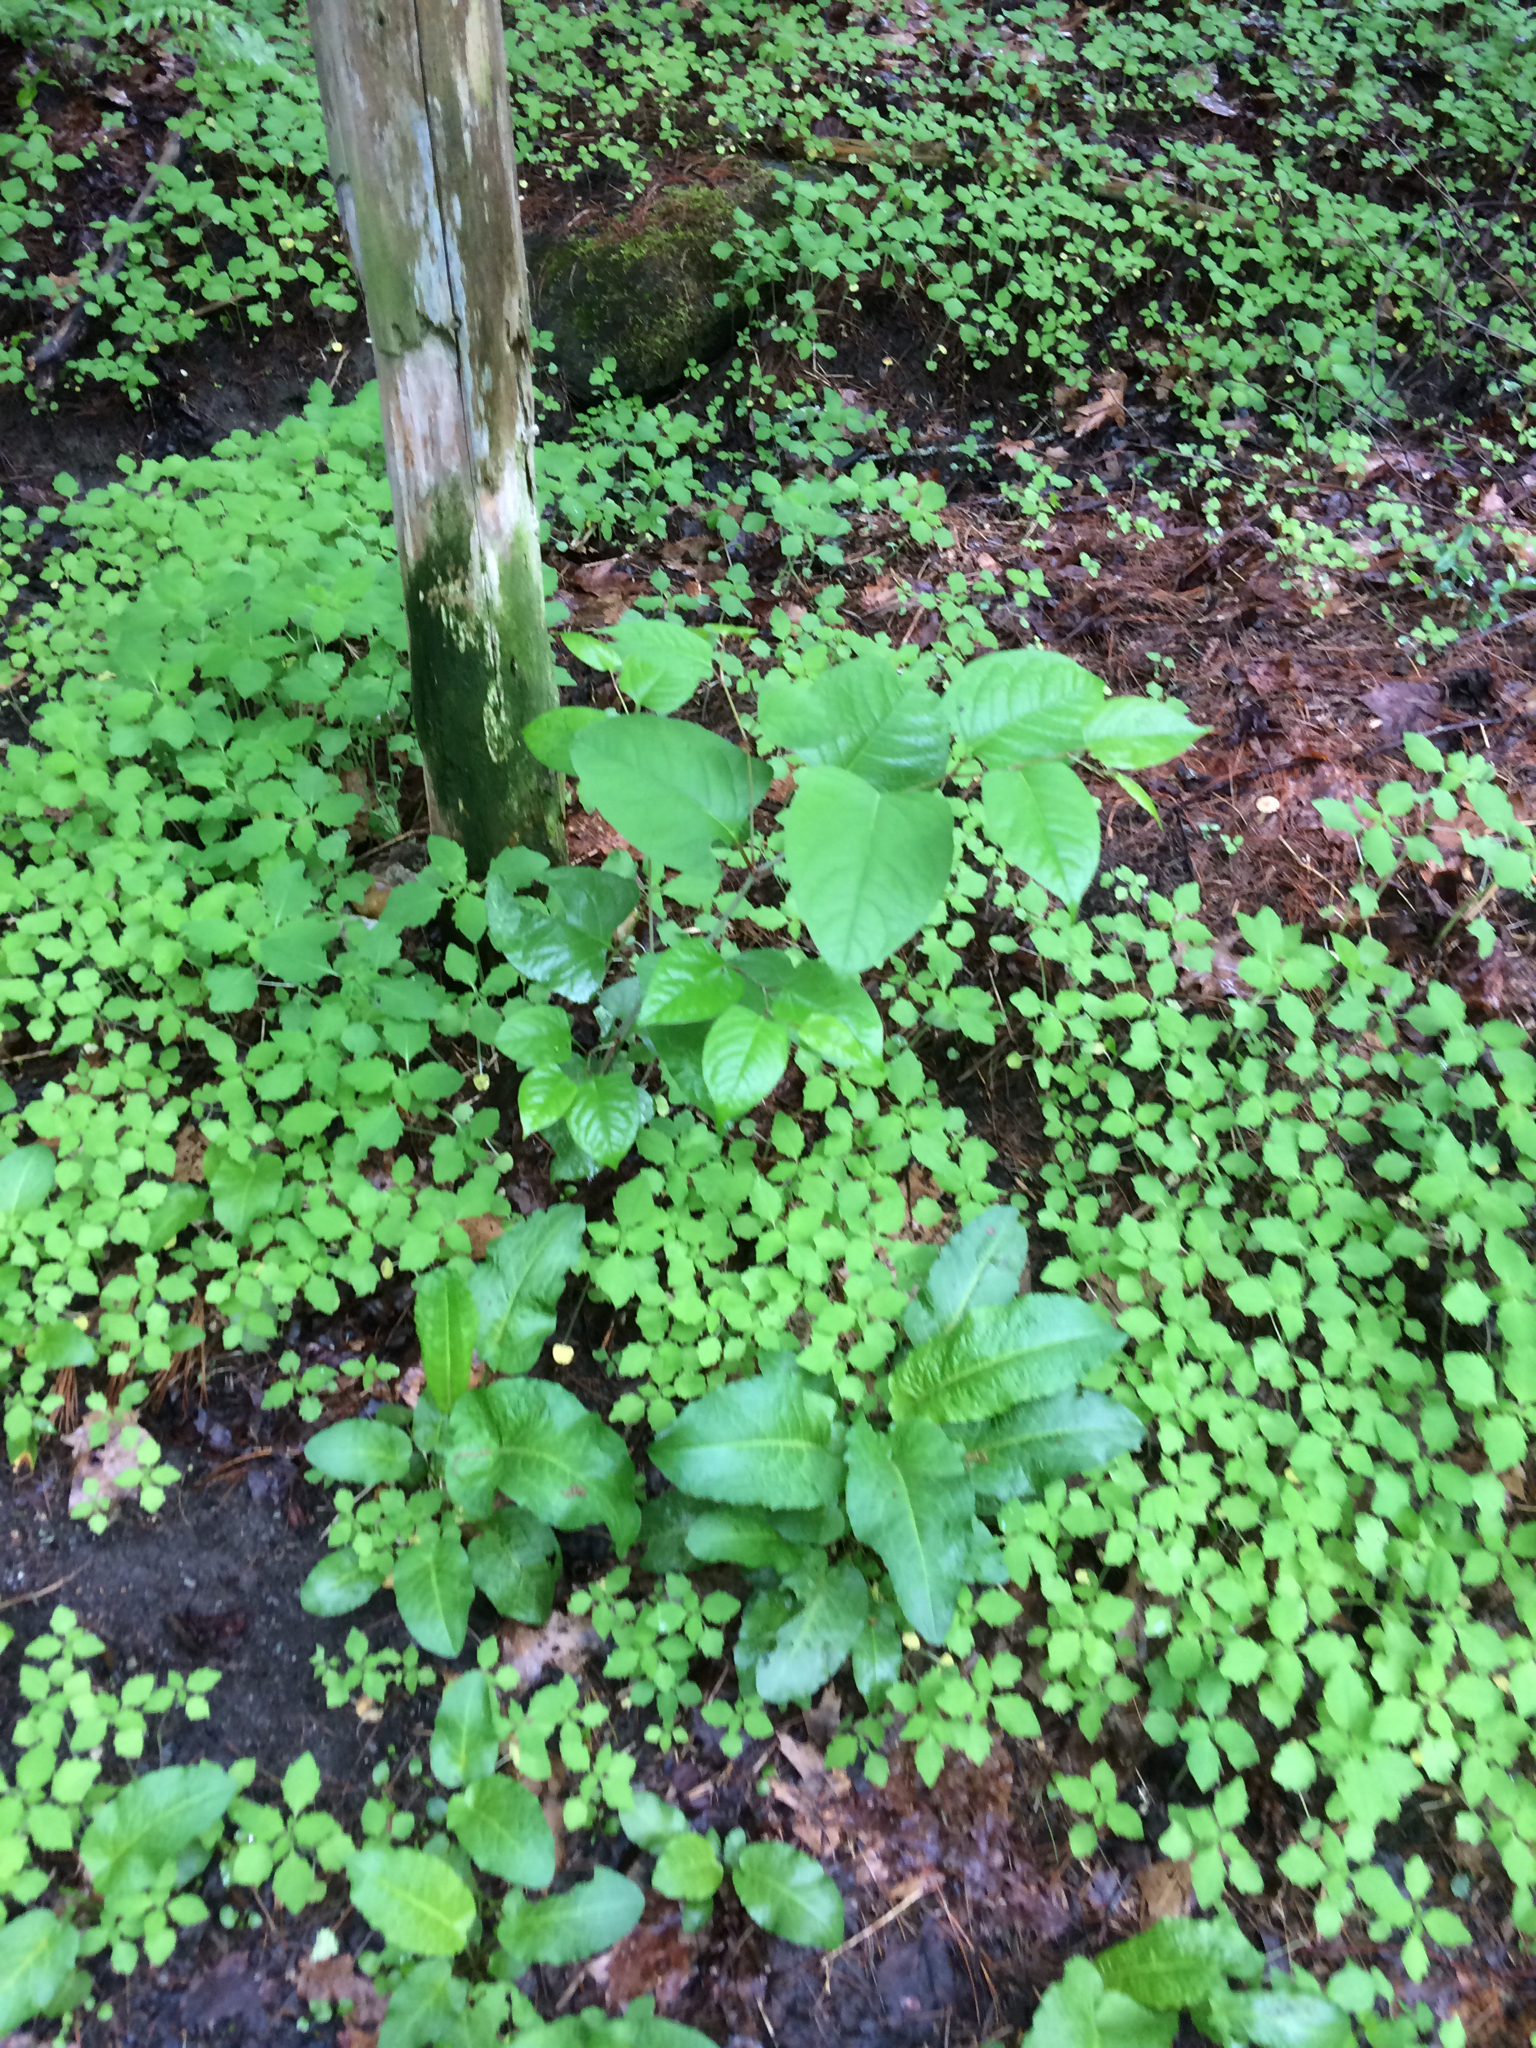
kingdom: Plantae
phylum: Tracheophyta
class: Magnoliopsida
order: Caryophyllales
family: Polygonaceae
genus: Reynoutria
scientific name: Reynoutria japonica
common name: Japanese knotweed
